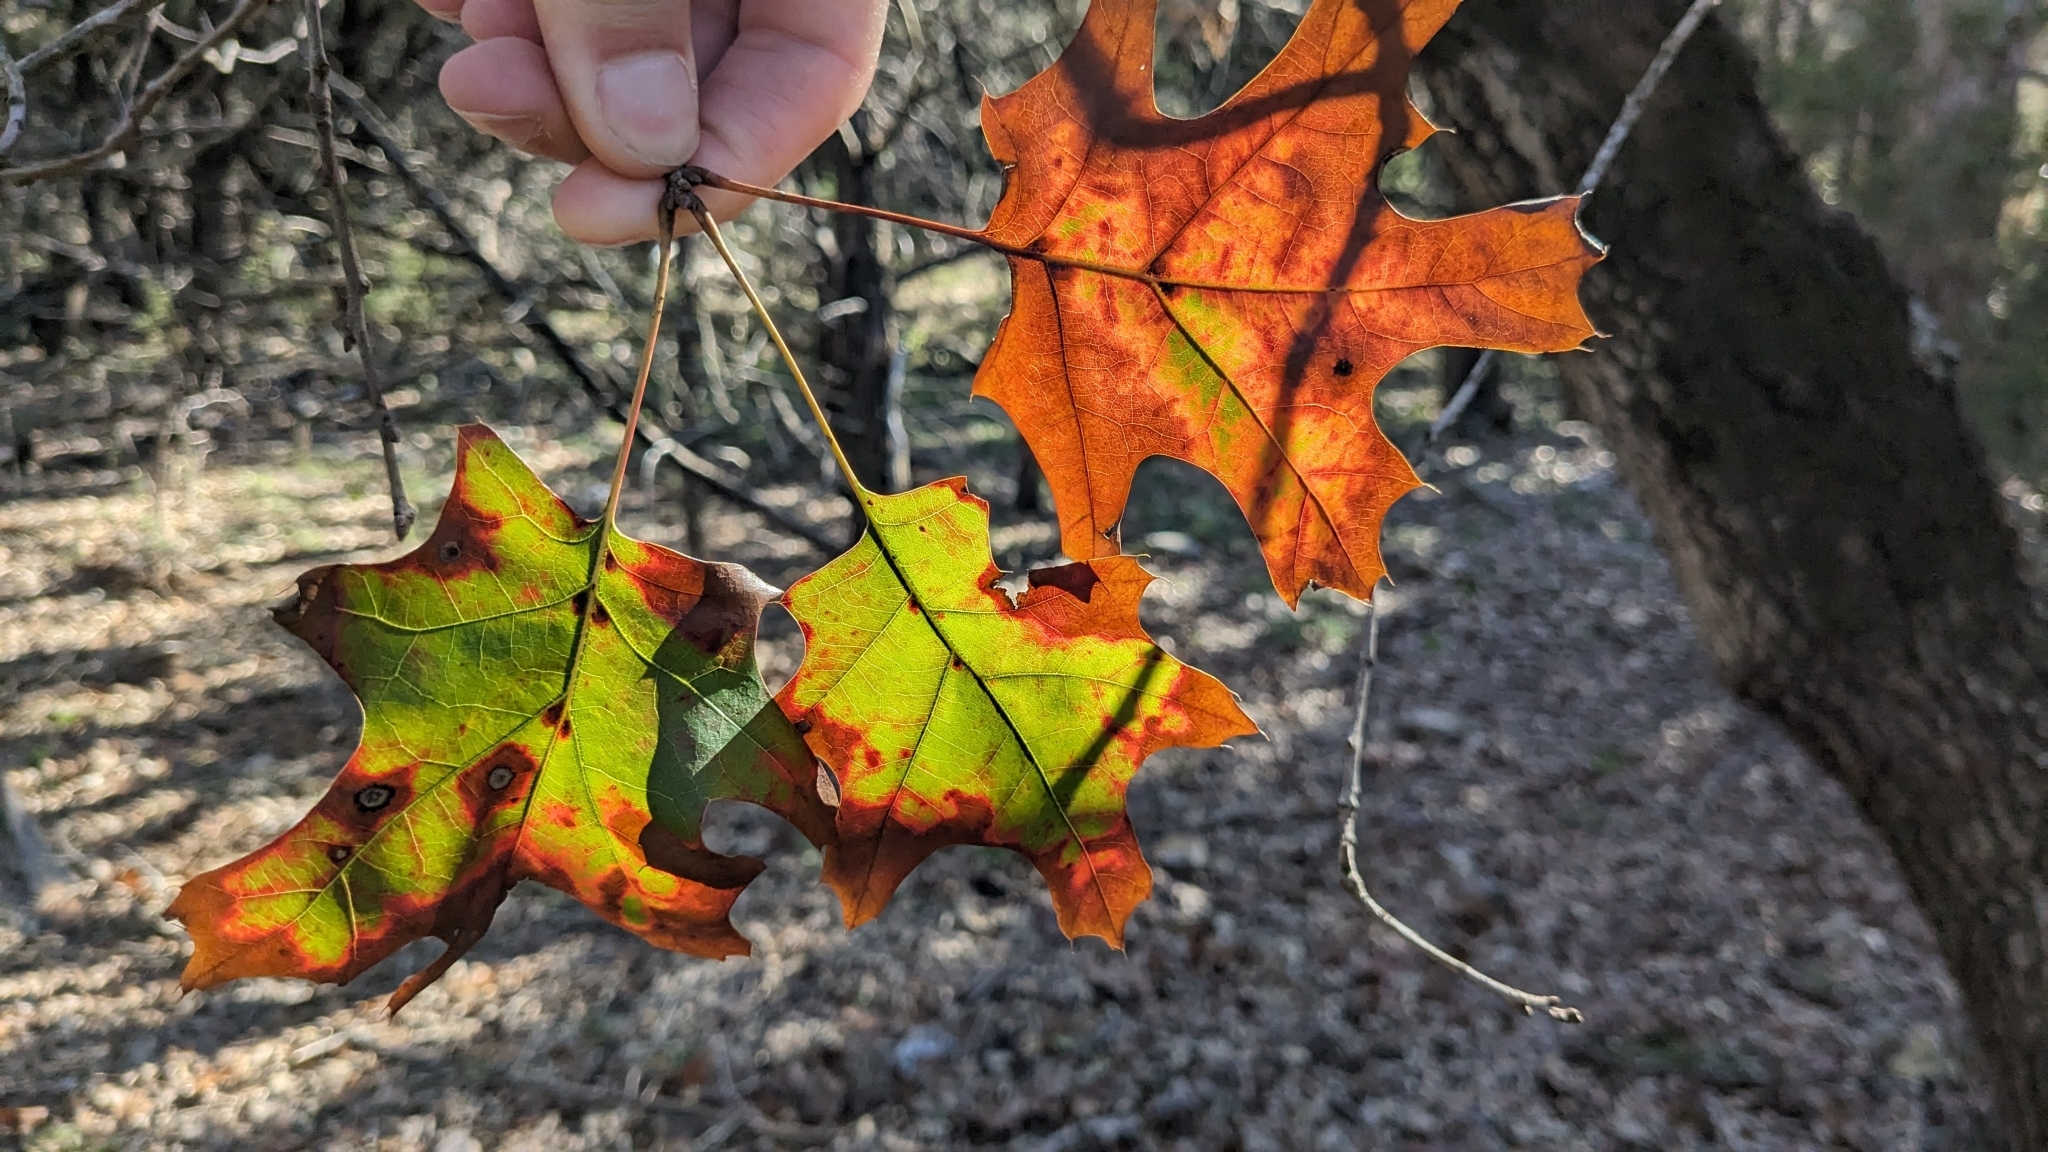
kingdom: Plantae
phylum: Tracheophyta
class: Magnoliopsida
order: Fagales
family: Fagaceae
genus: Quercus
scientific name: Quercus buckleyi
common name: Buckley oak
